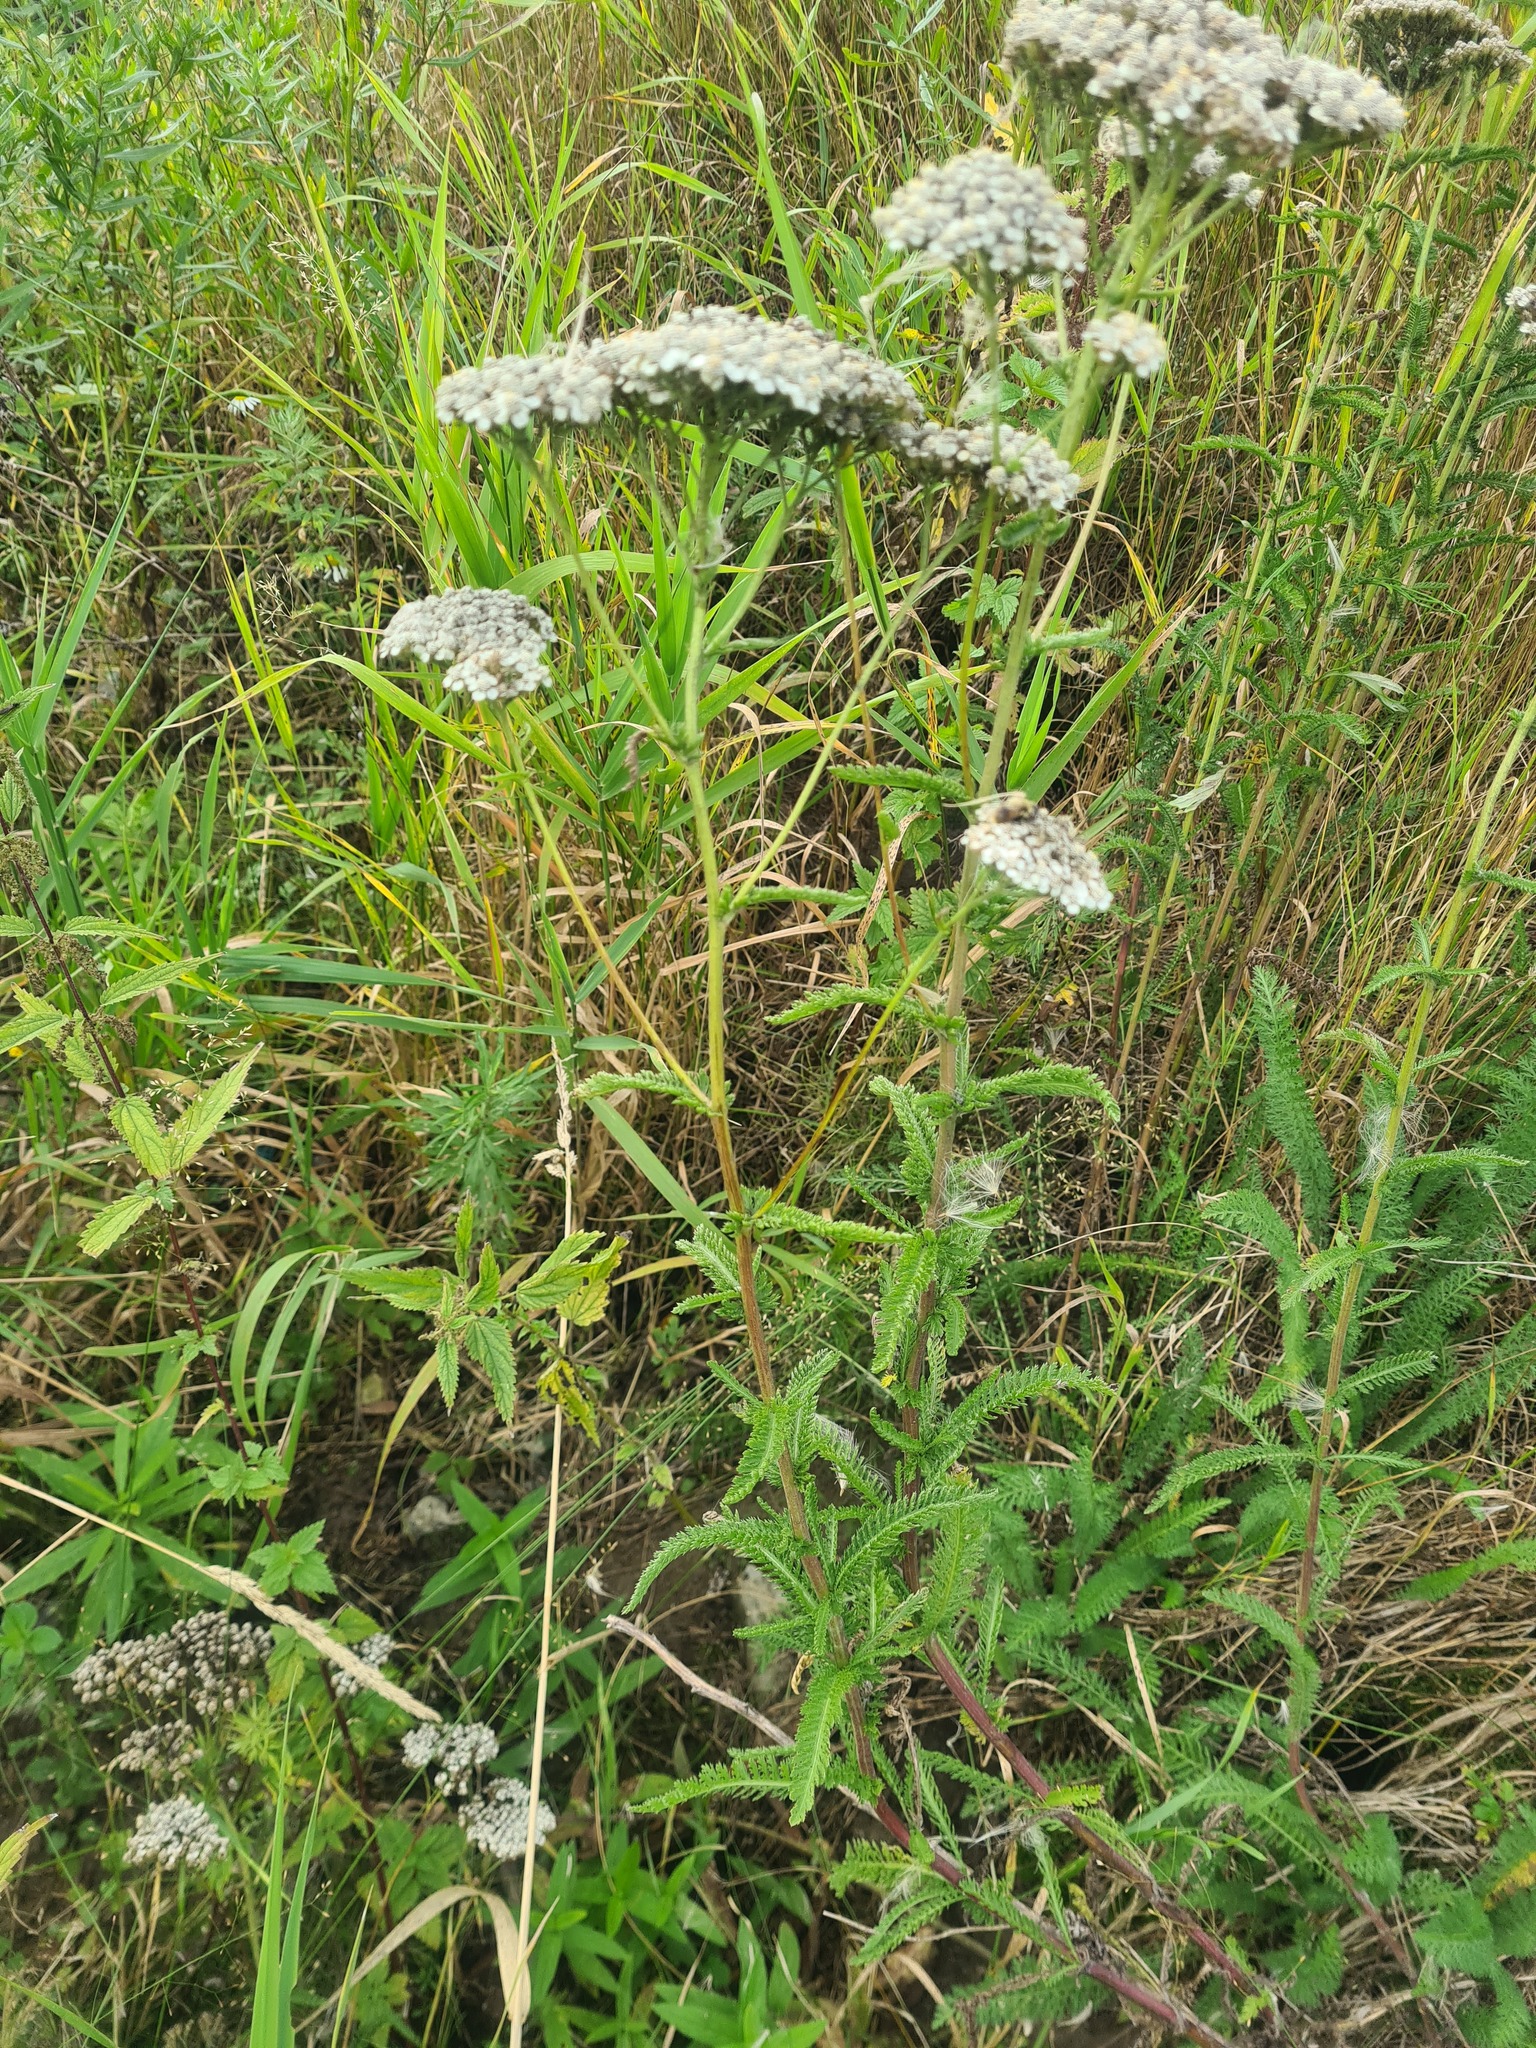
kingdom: Plantae
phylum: Tracheophyta
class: Magnoliopsida
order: Asterales
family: Asteraceae
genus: Achillea
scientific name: Achillea millefolium
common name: Yarrow
